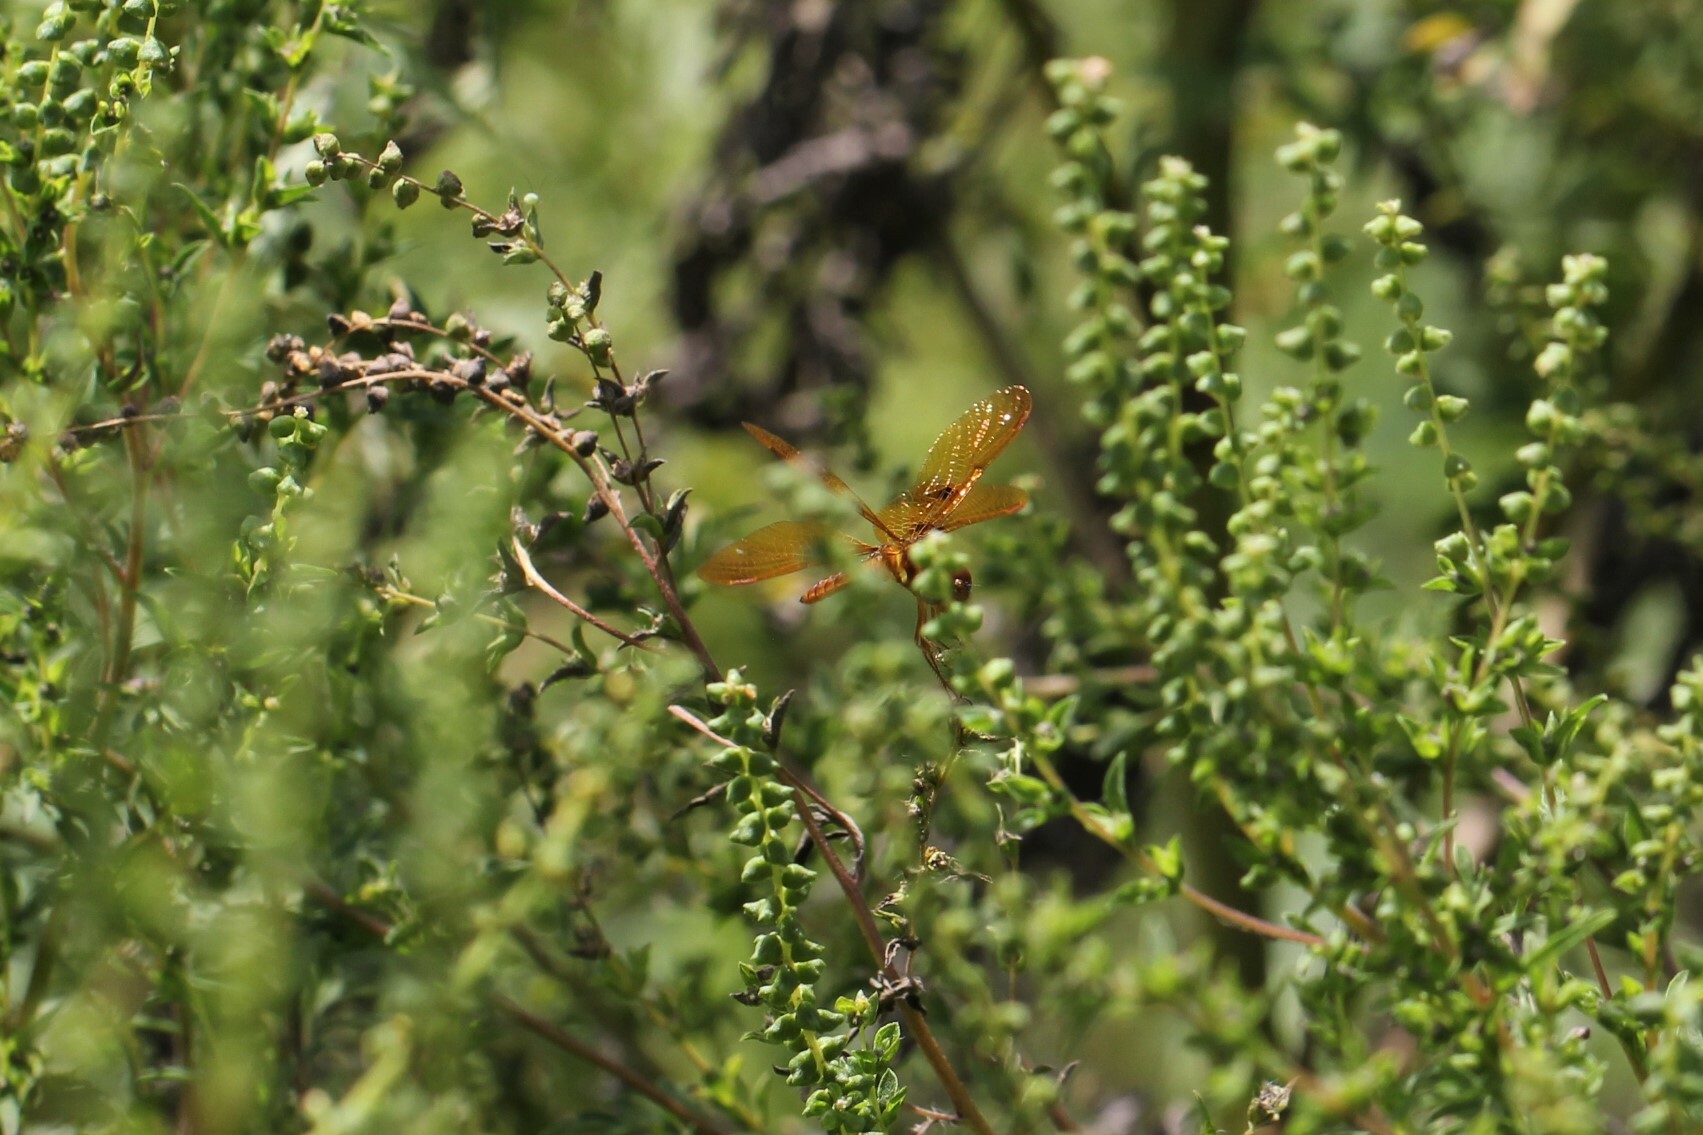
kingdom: Animalia
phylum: Arthropoda
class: Insecta
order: Odonata
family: Libellulidae
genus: Perithemis
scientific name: Perithemis tenera
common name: Eastern amberwing
